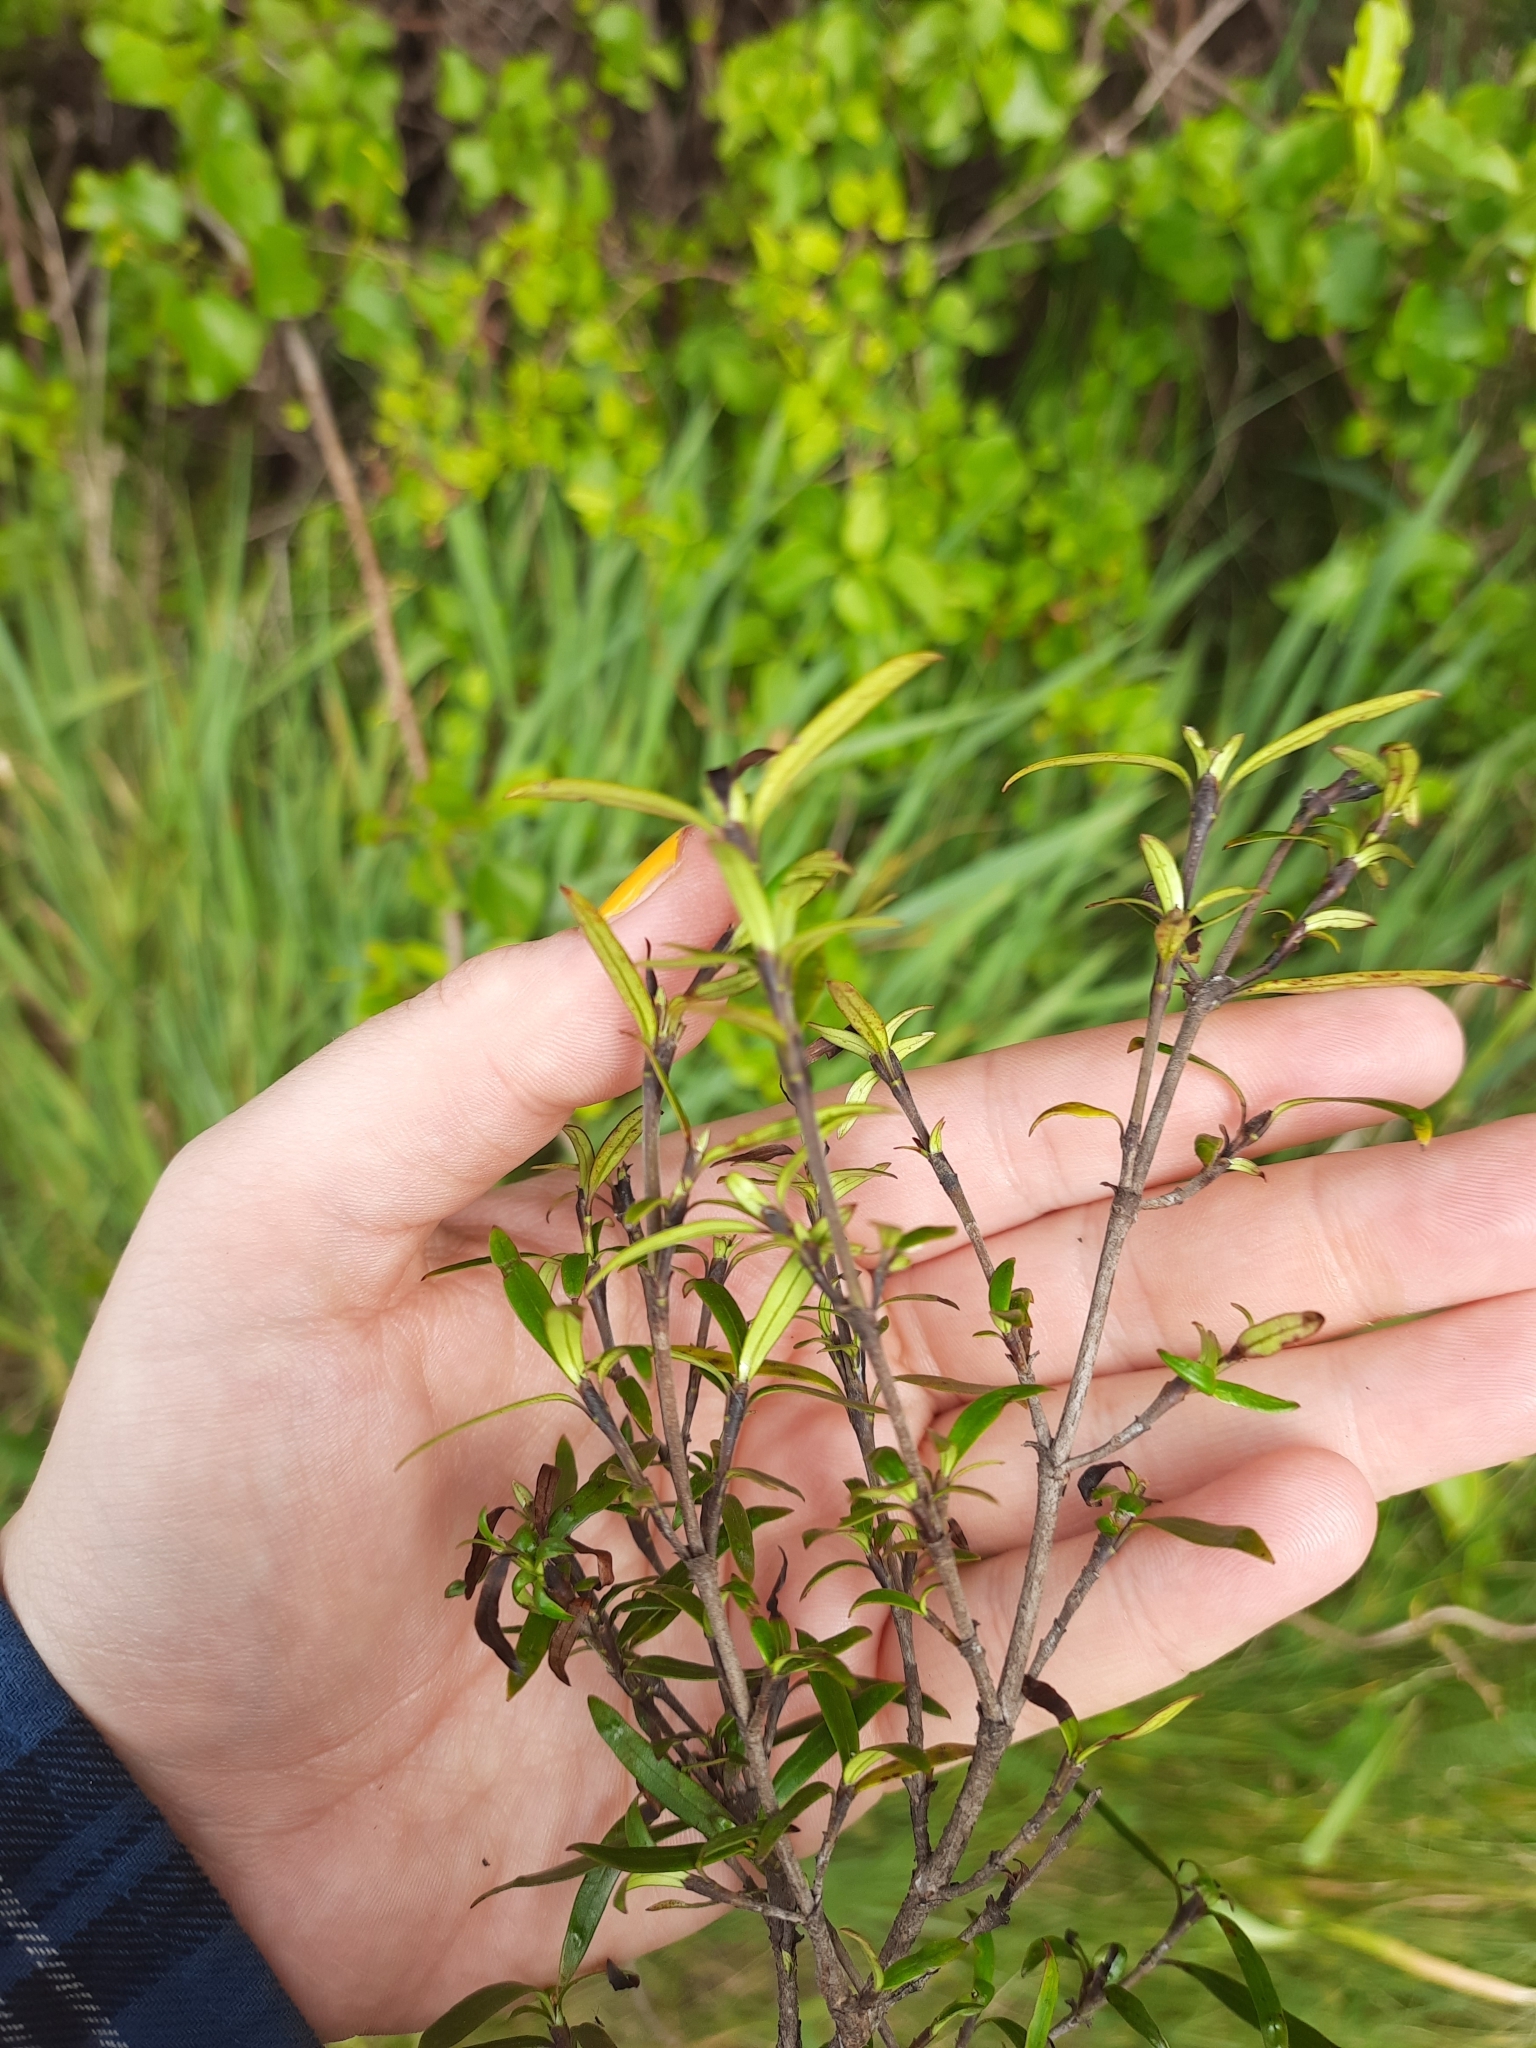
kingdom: Plantae
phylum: Tracheophyta
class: Magnoliopsida
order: Gentianales
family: Rubiaceae
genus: Coprosma
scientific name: Coprosma linariifolia
